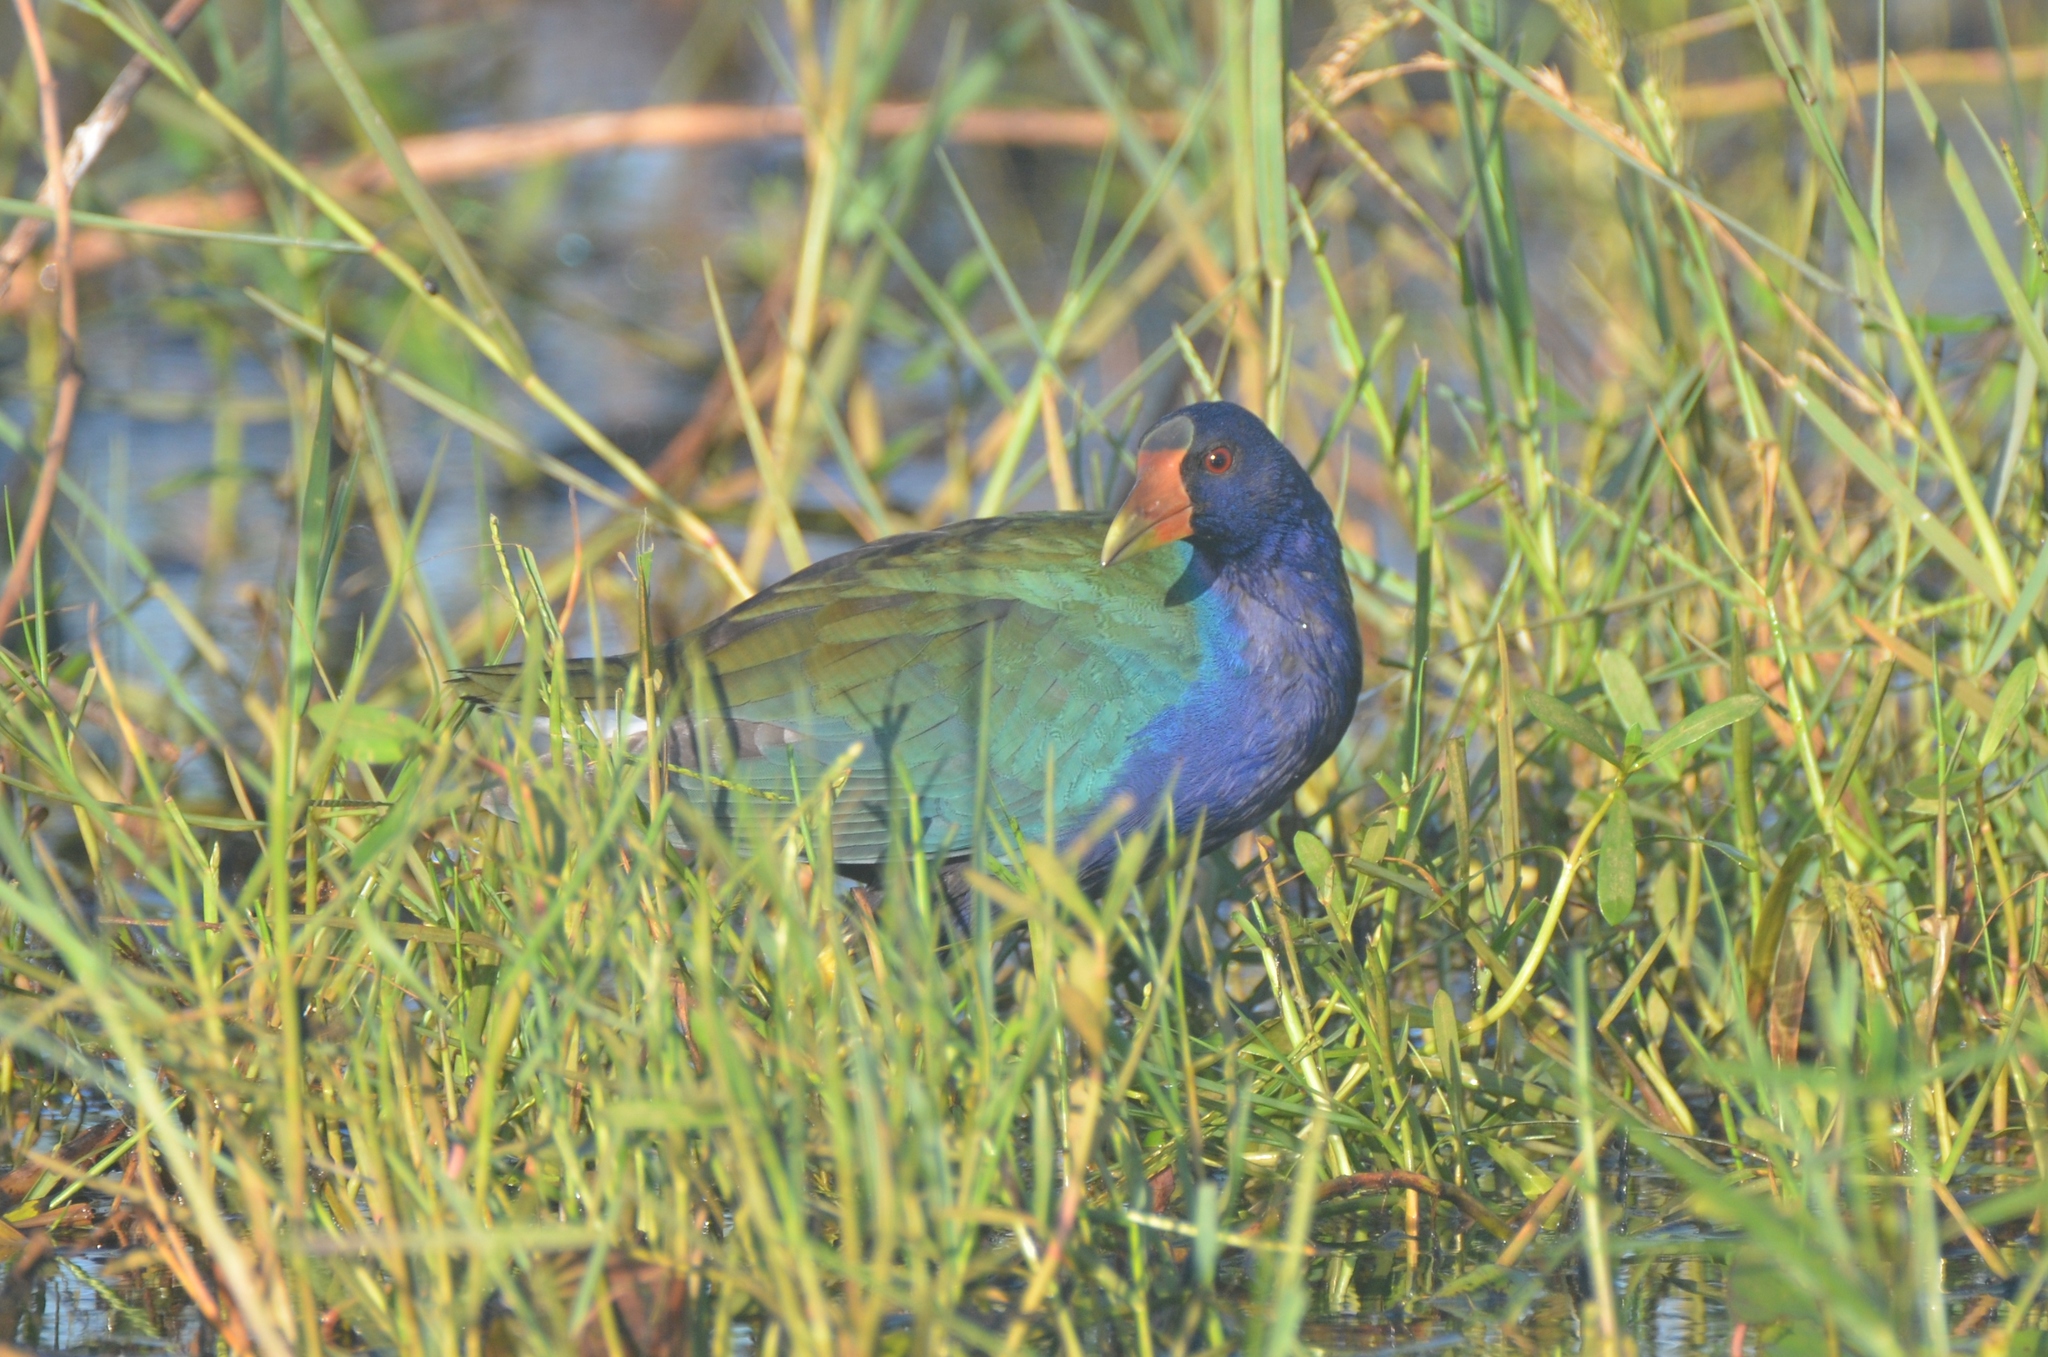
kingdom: Animalia
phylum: Chordata
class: Aves
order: Gruiformes
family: Rallidae
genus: Porphyrio
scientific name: Porphyrio martinica
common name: Purple gallinule
